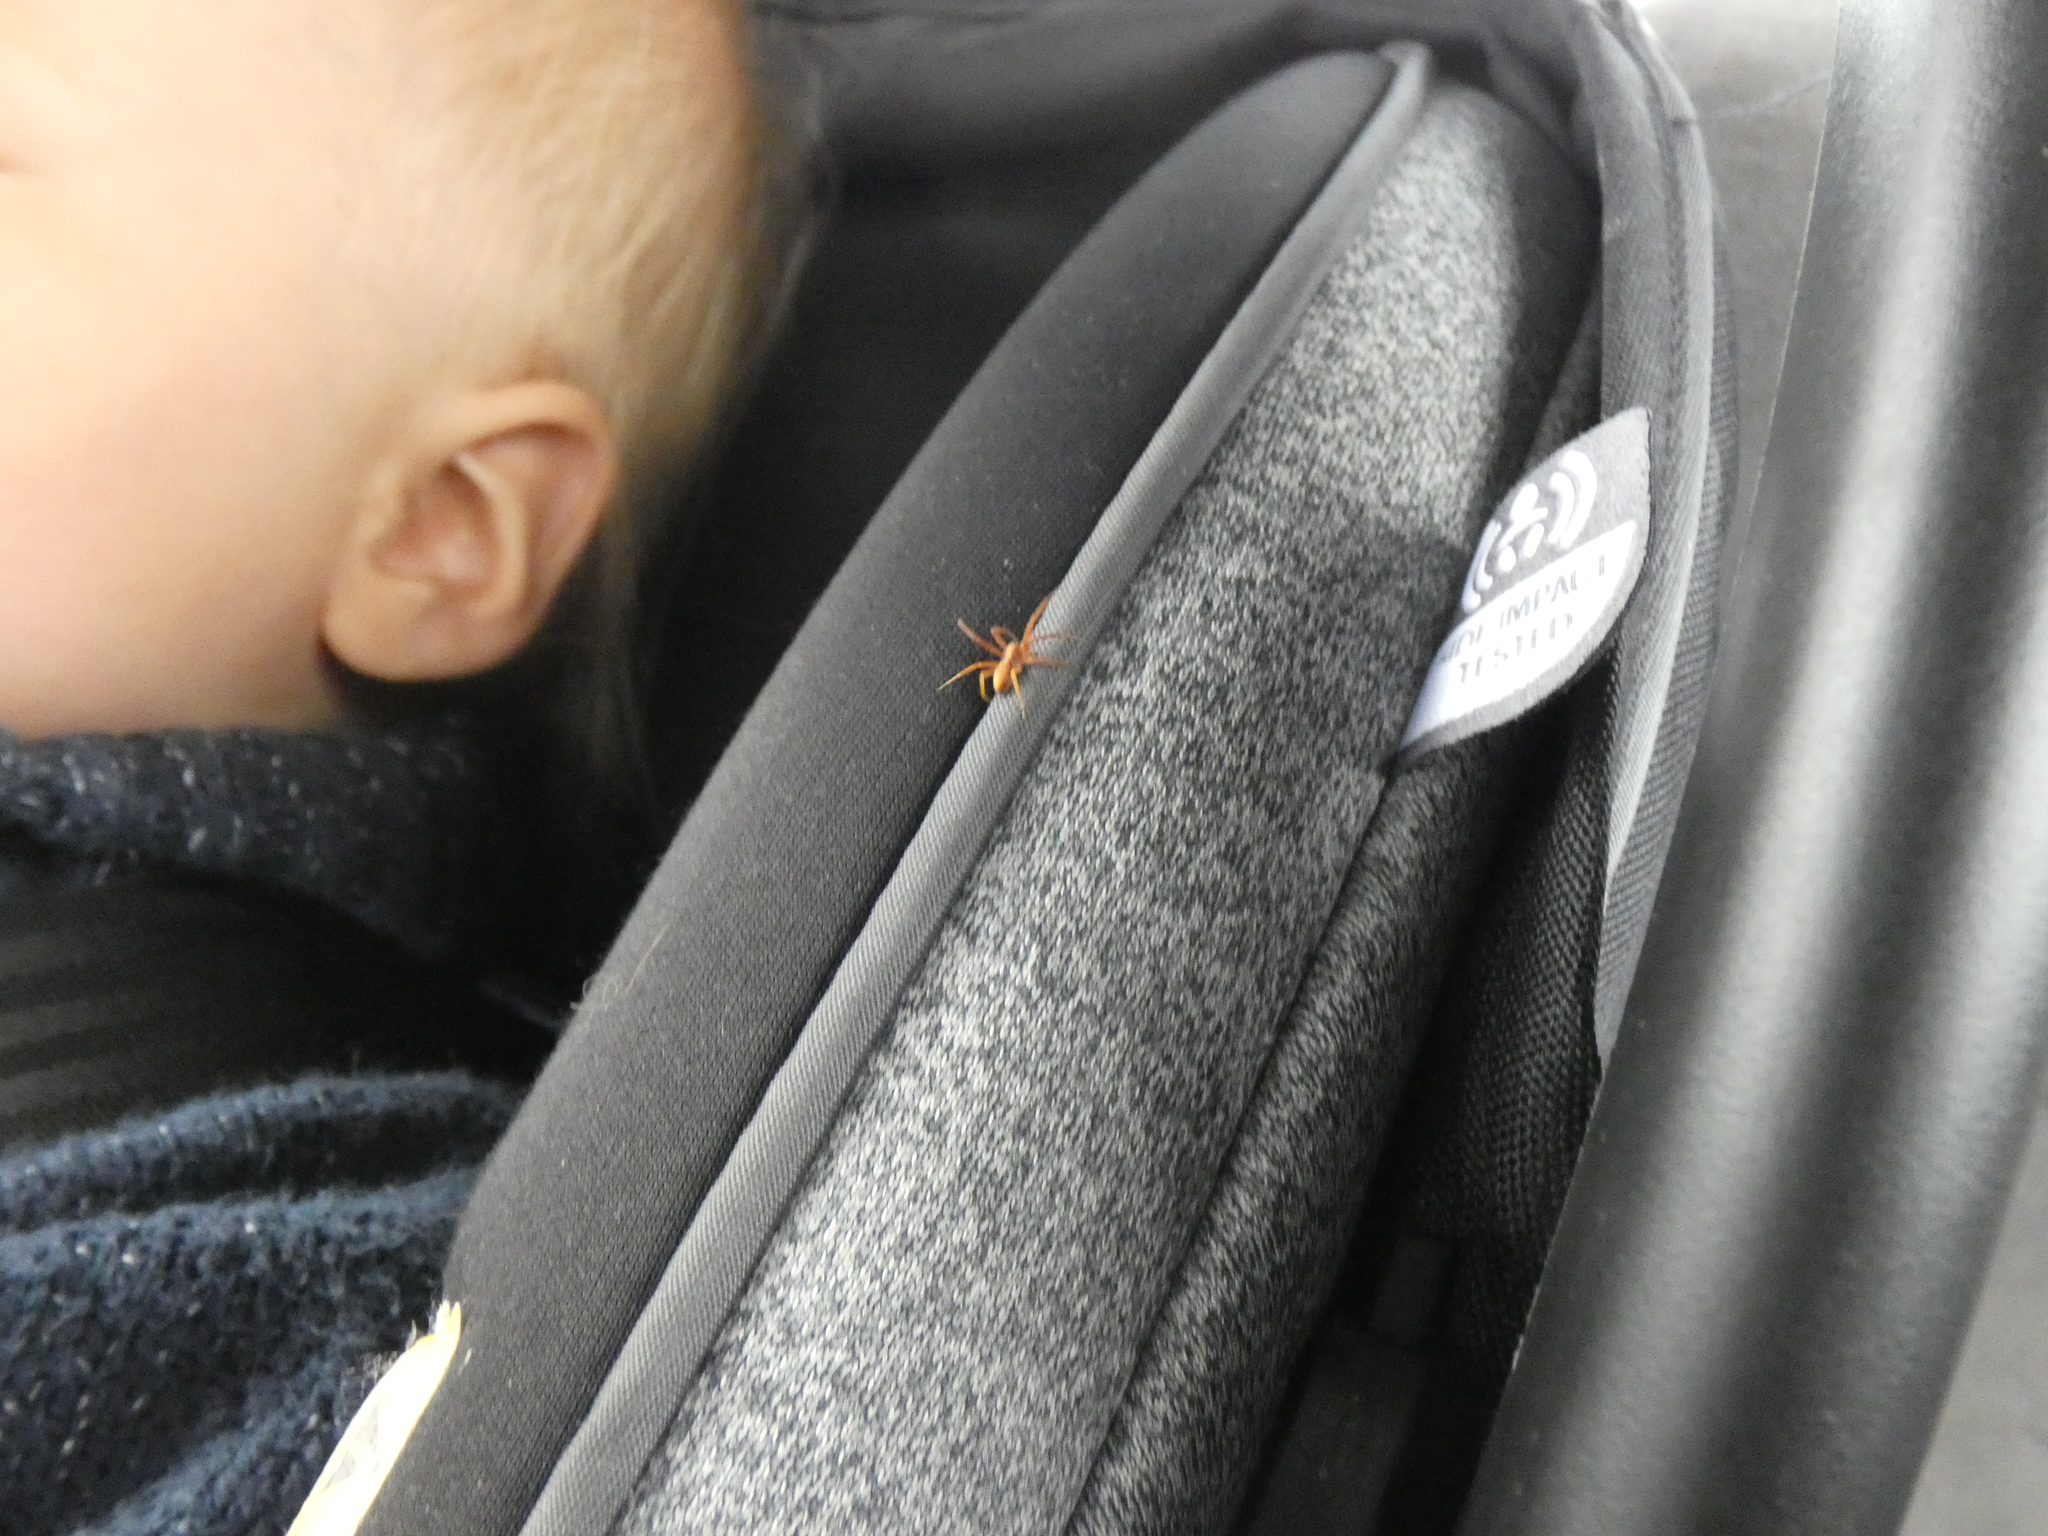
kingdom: Animalia
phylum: Arthropoda
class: Arachnida
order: Araneae
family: Philodromidae
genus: Philodromus
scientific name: Philodromus rufus
